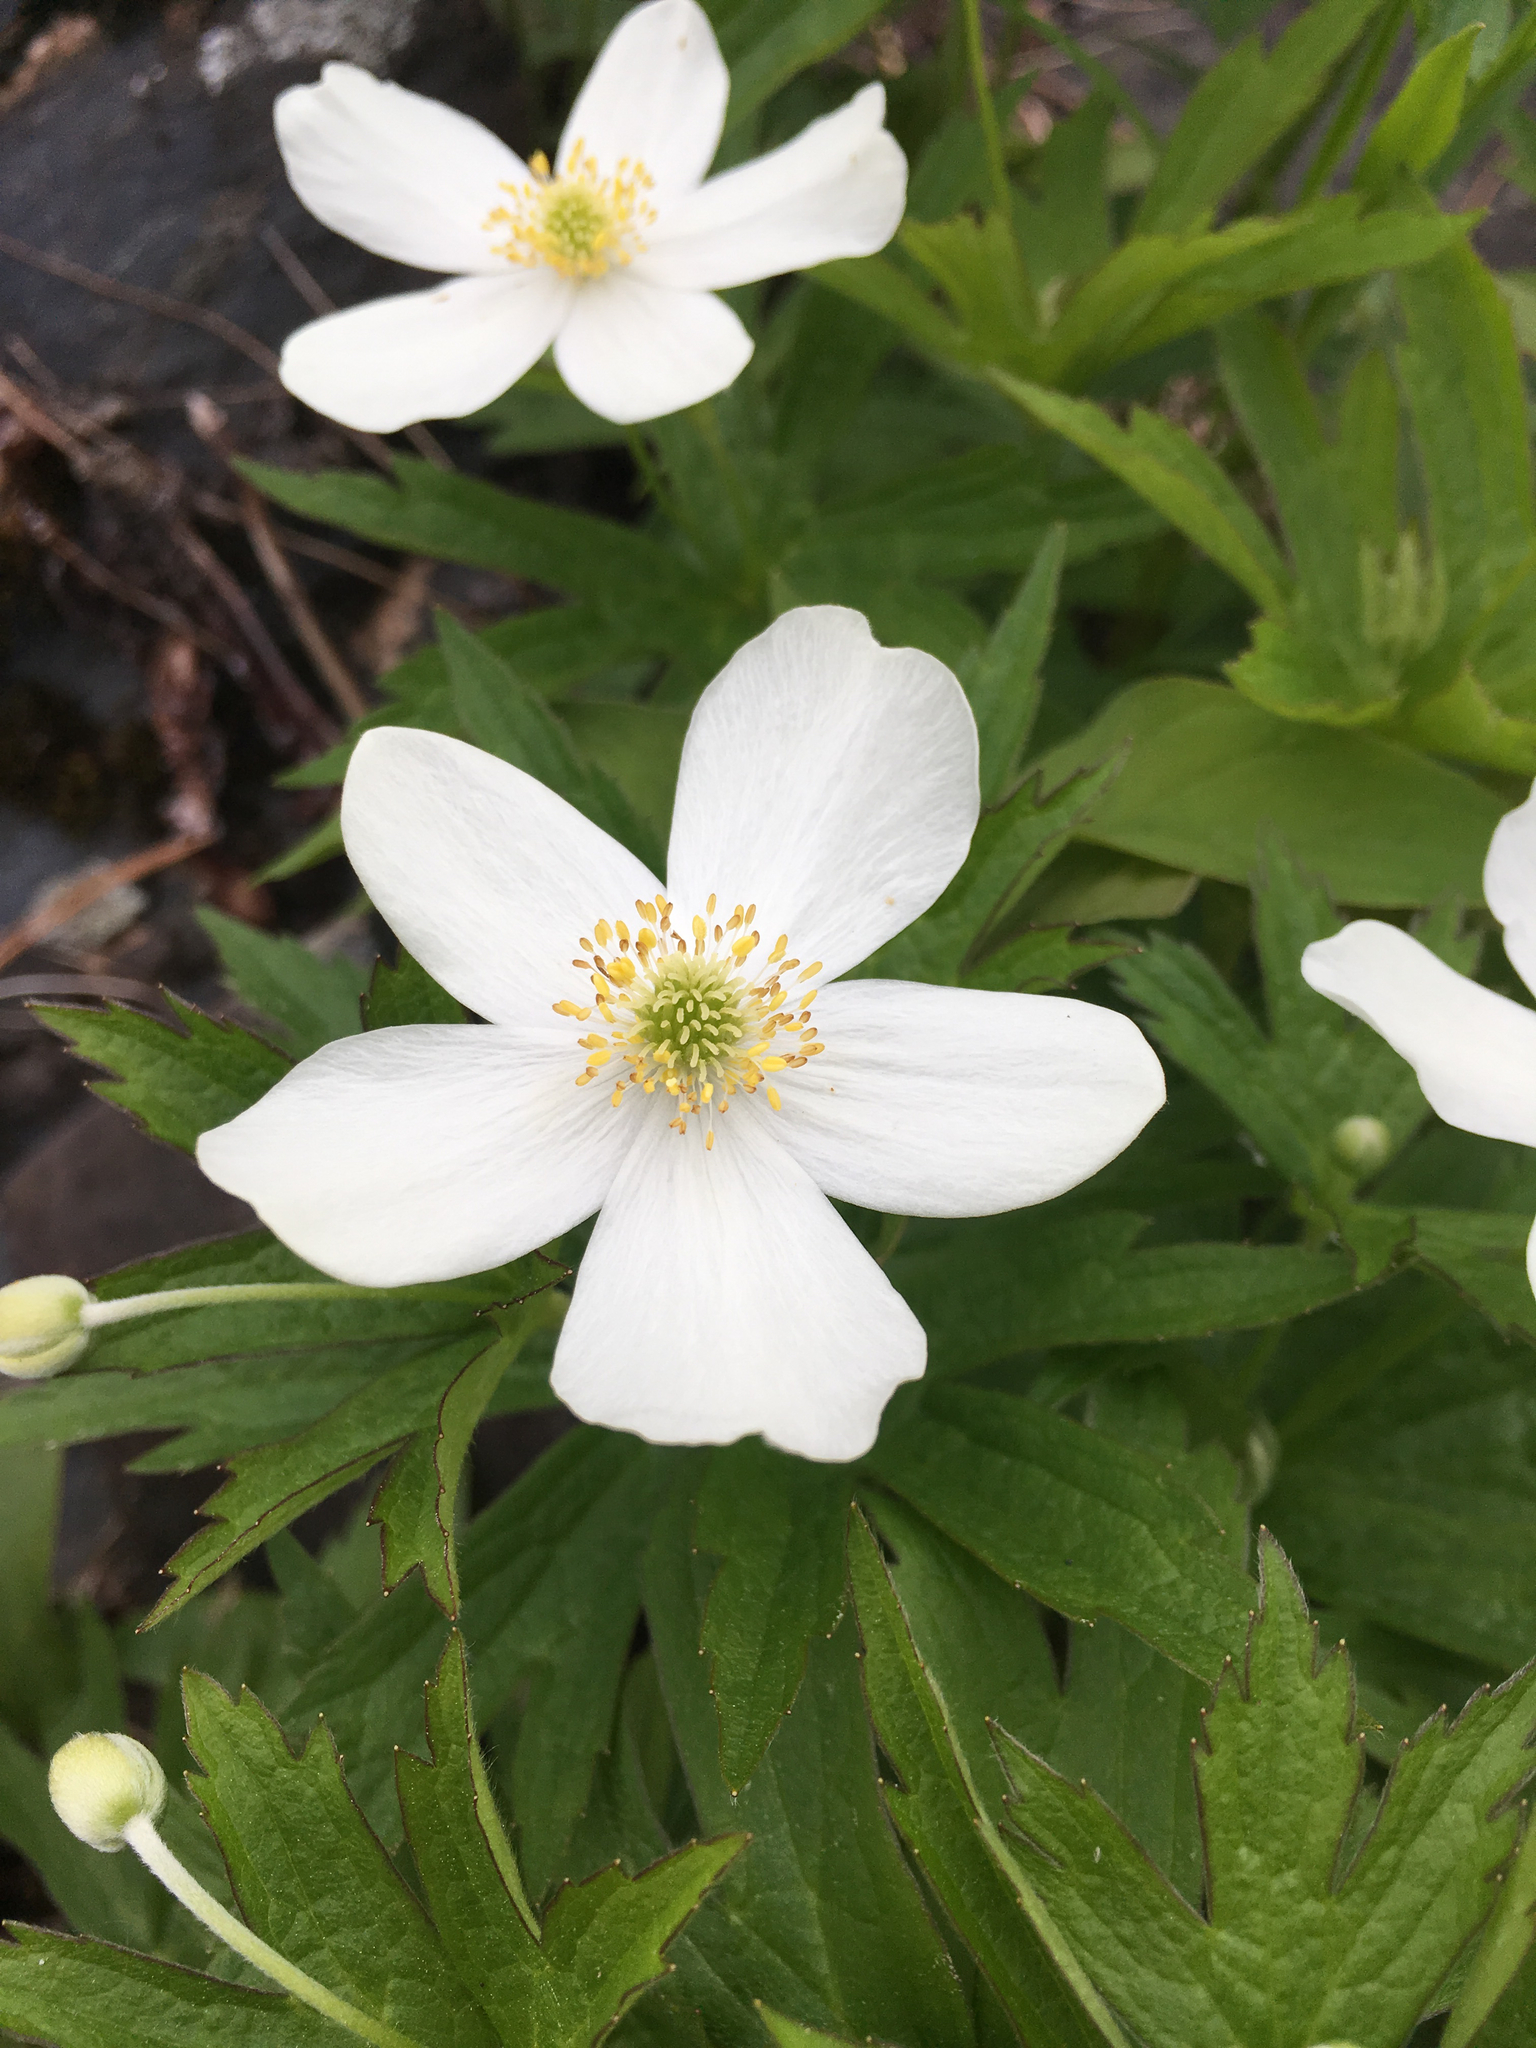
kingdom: Plantae
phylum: Tracheophyta
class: Magnoliopsida
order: Ranunculales
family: Ranunculaceae
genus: Anemonastrum
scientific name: Anemonastrum canadense
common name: Canada anemone
